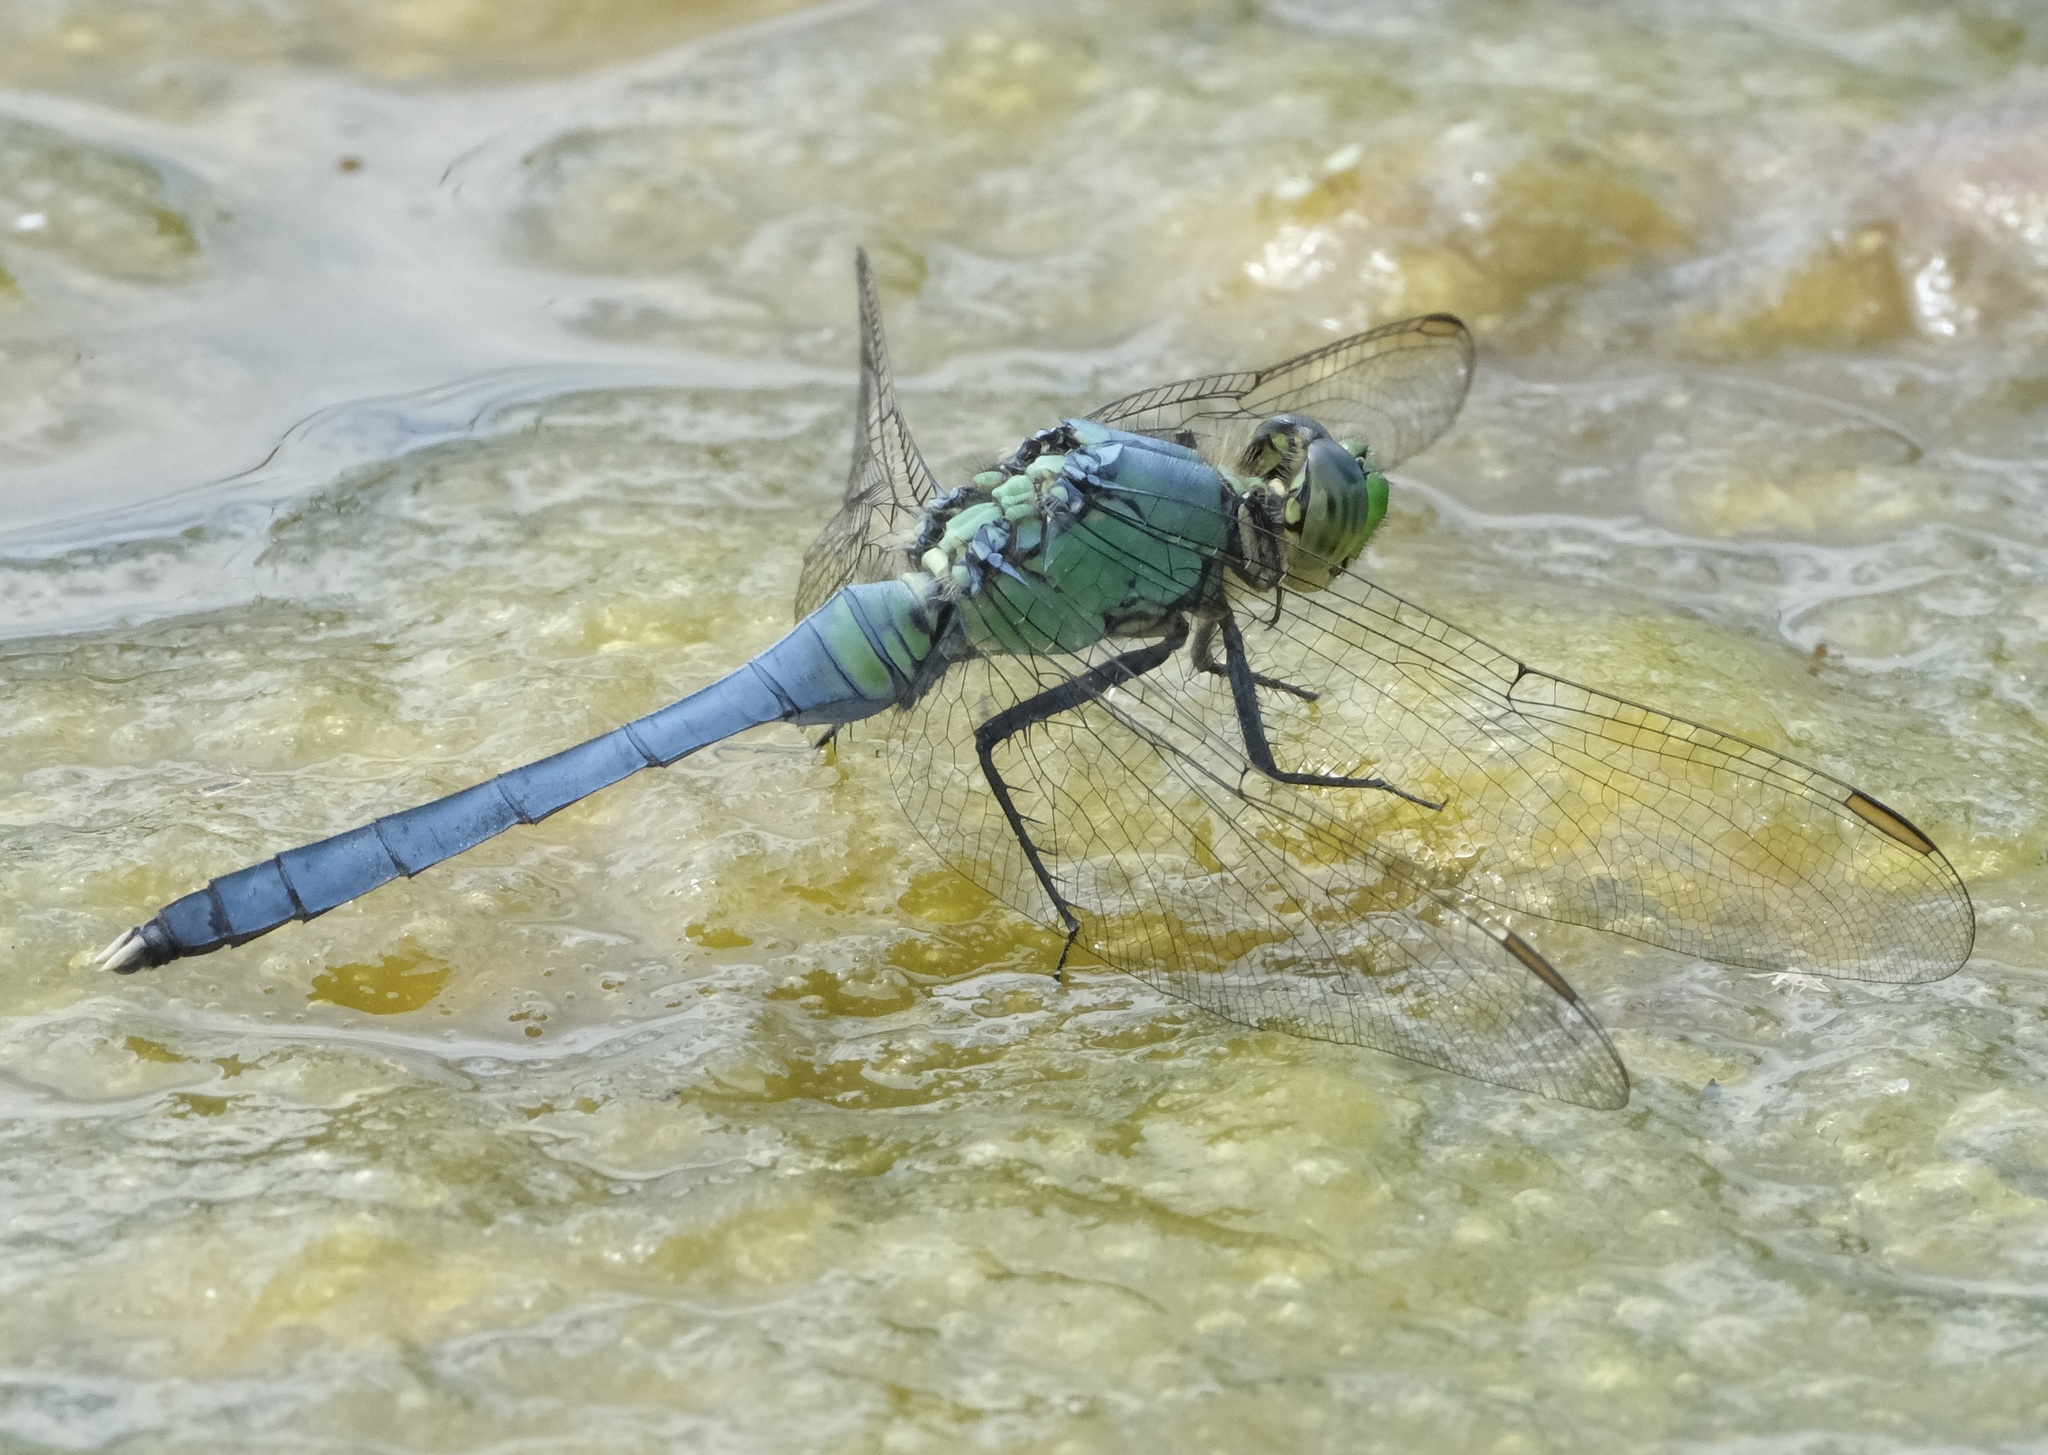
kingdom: Animalia
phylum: Arthropoda
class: Insecta
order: Odonata
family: Libellulidae
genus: Erythemis
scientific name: Erythemis simplicicollis
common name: Eastern pondhawk
